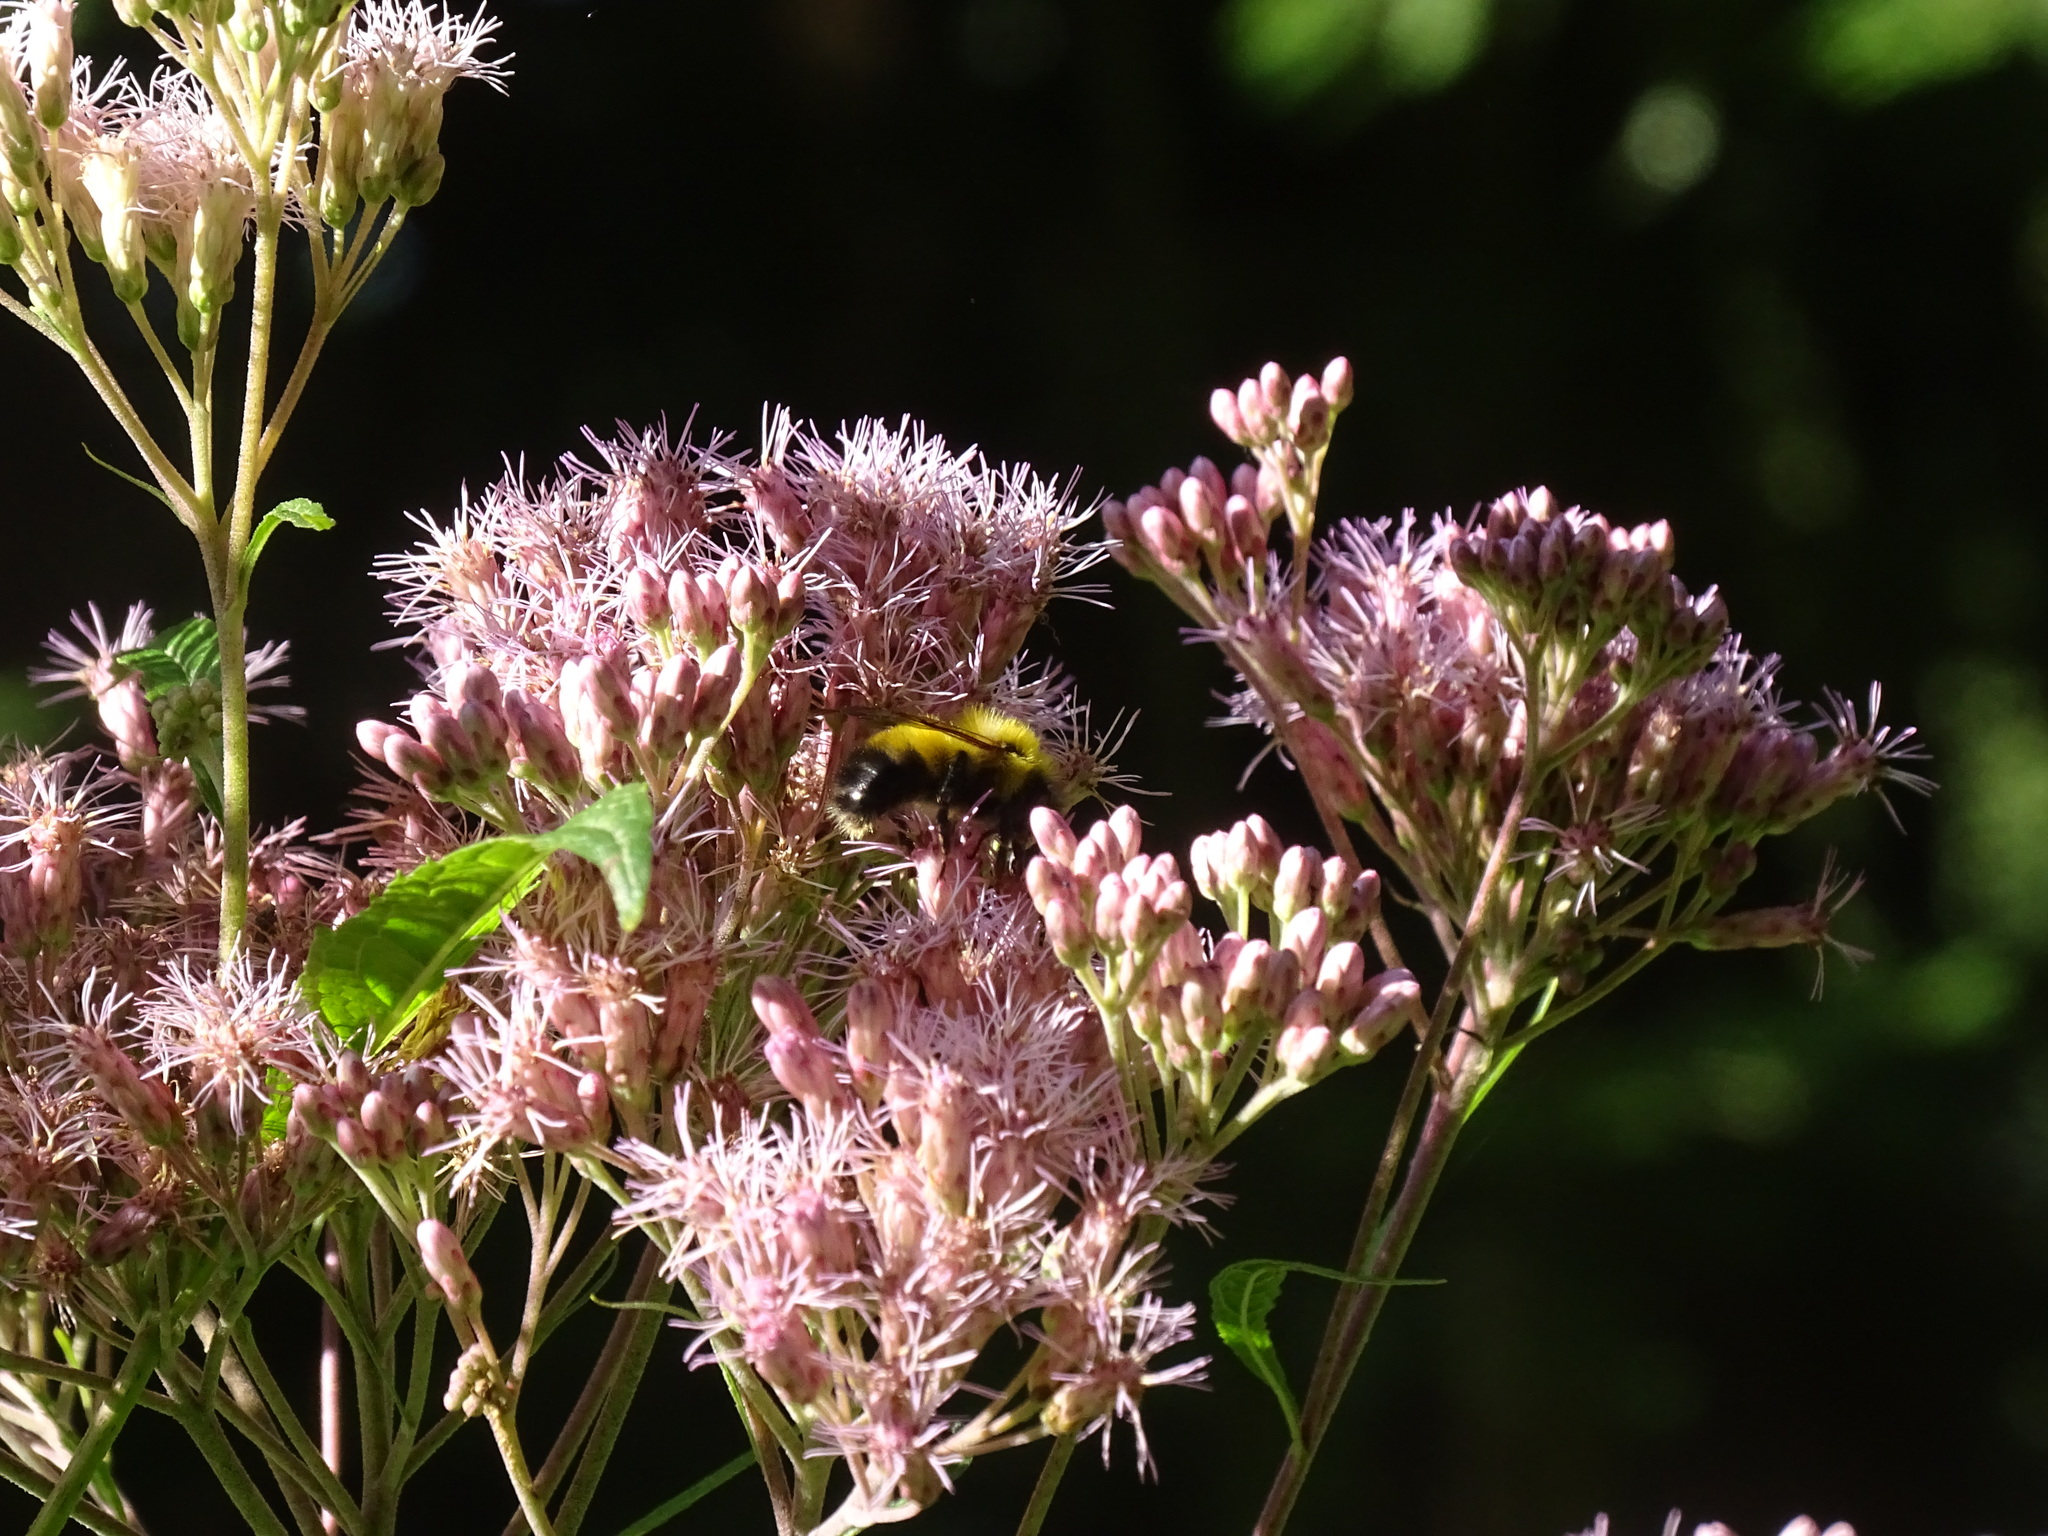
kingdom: Animalia
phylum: Arthropoda
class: Insecta
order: Hymenoptera
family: Apidae
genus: Bombus
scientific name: Bombus perplexus
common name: Confusing bumble bee
